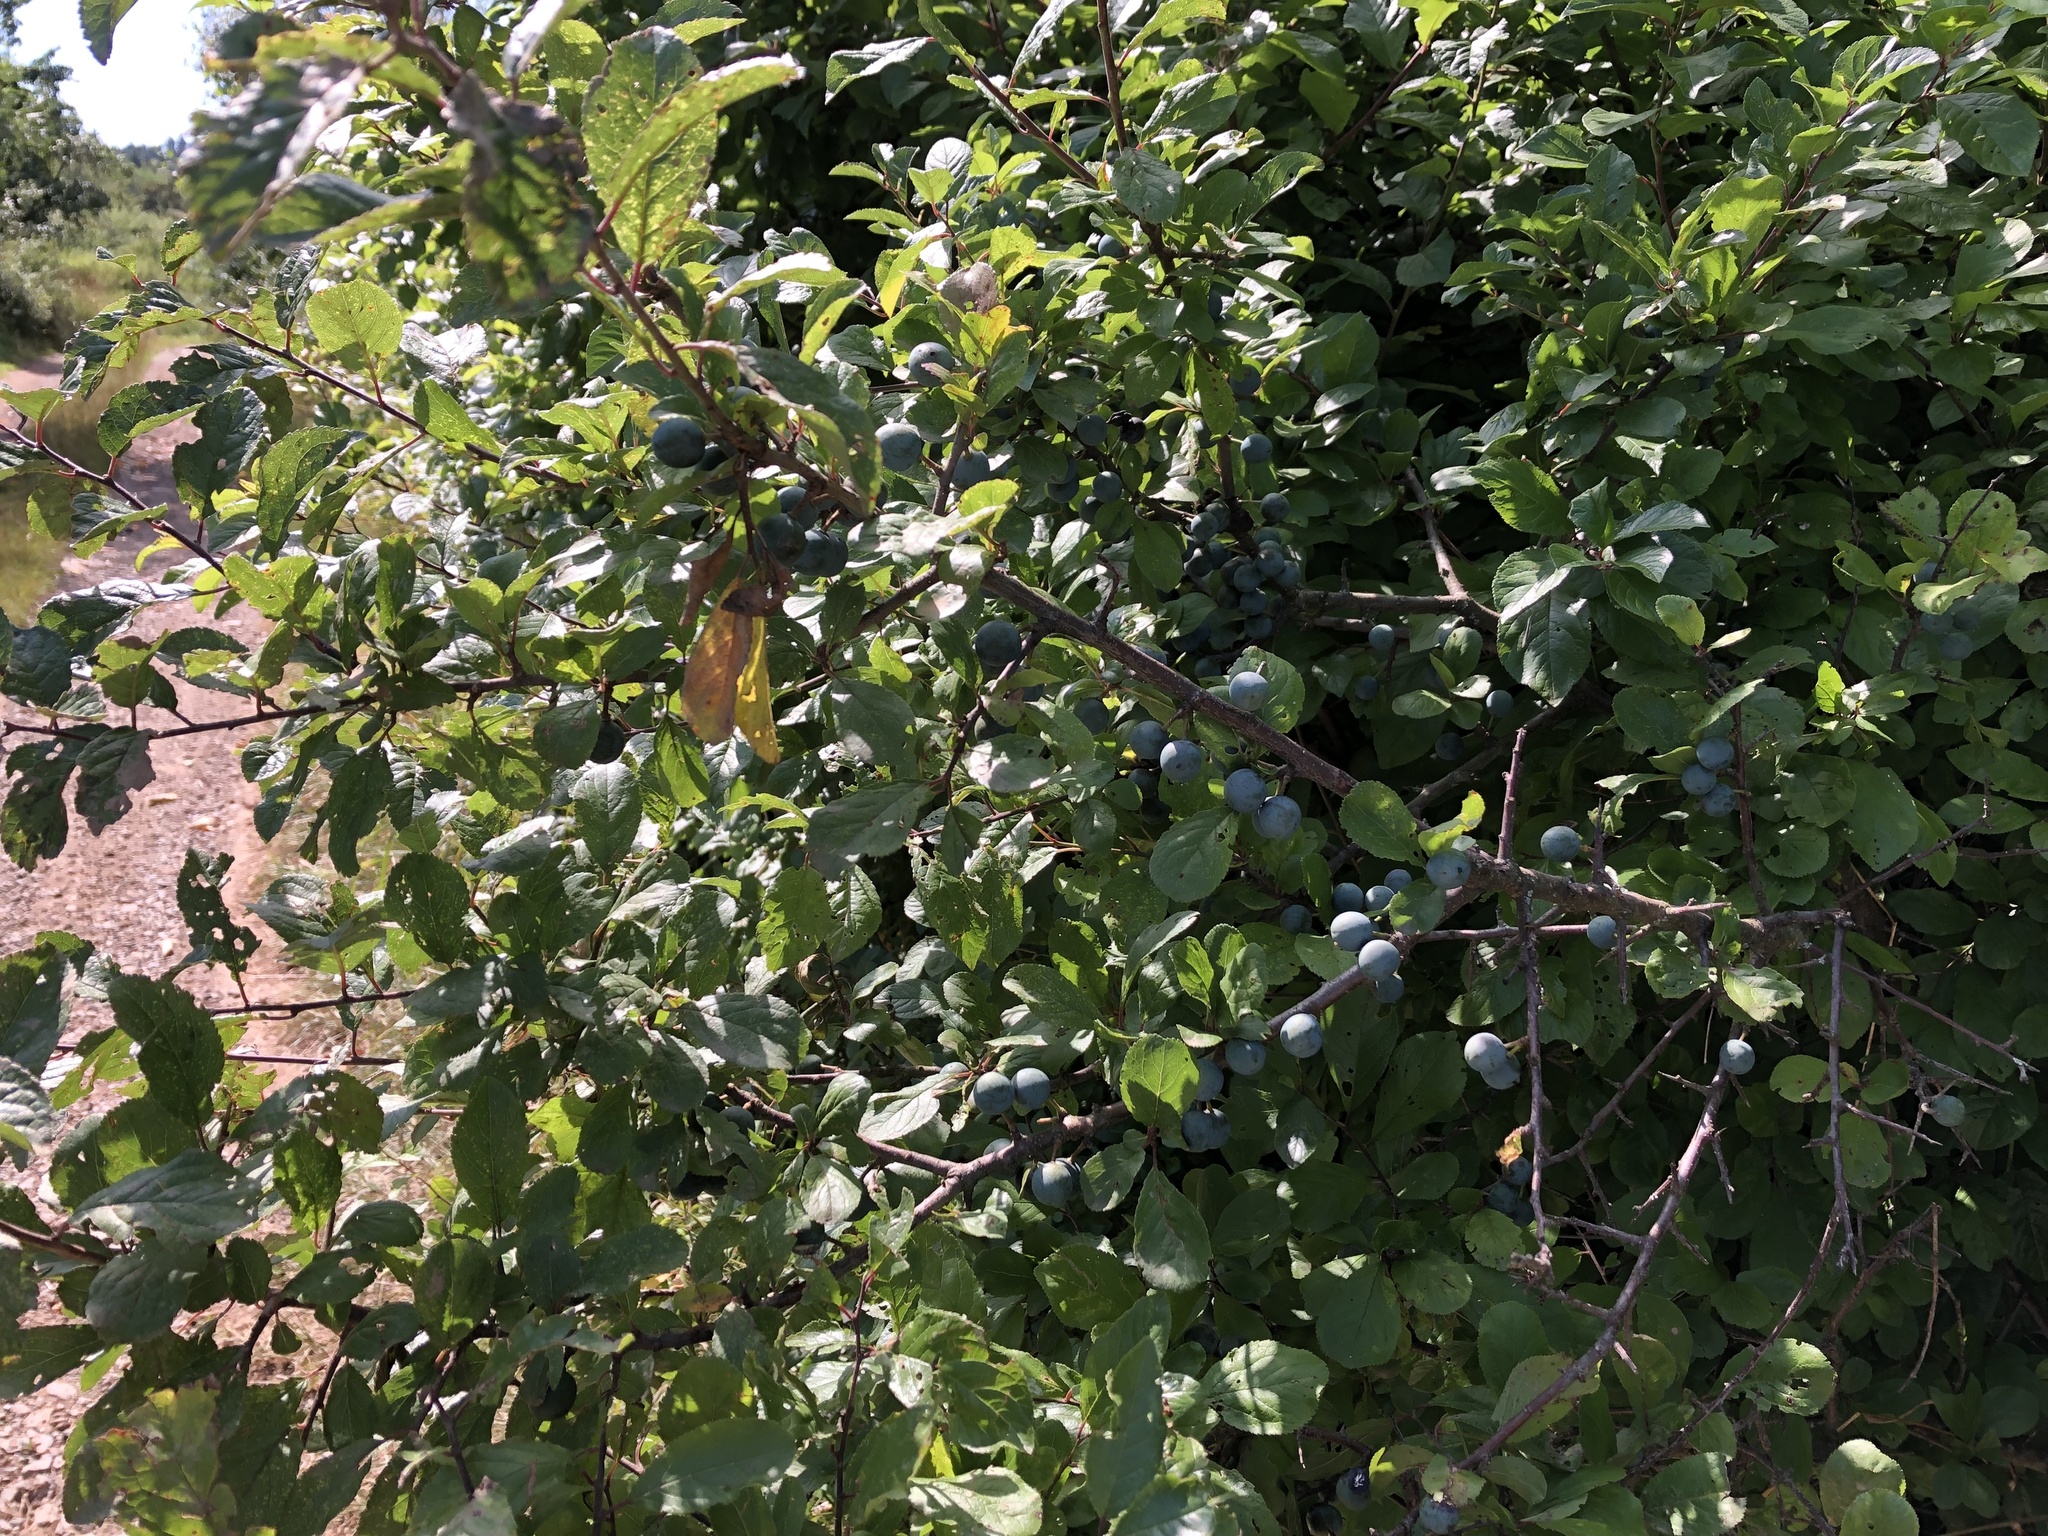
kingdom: Plantae
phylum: Tracheophyta
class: Magnoliopsida
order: Rosales
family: Rosaceae
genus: Prunus
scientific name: Prunus spinosa
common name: Blackthorn
